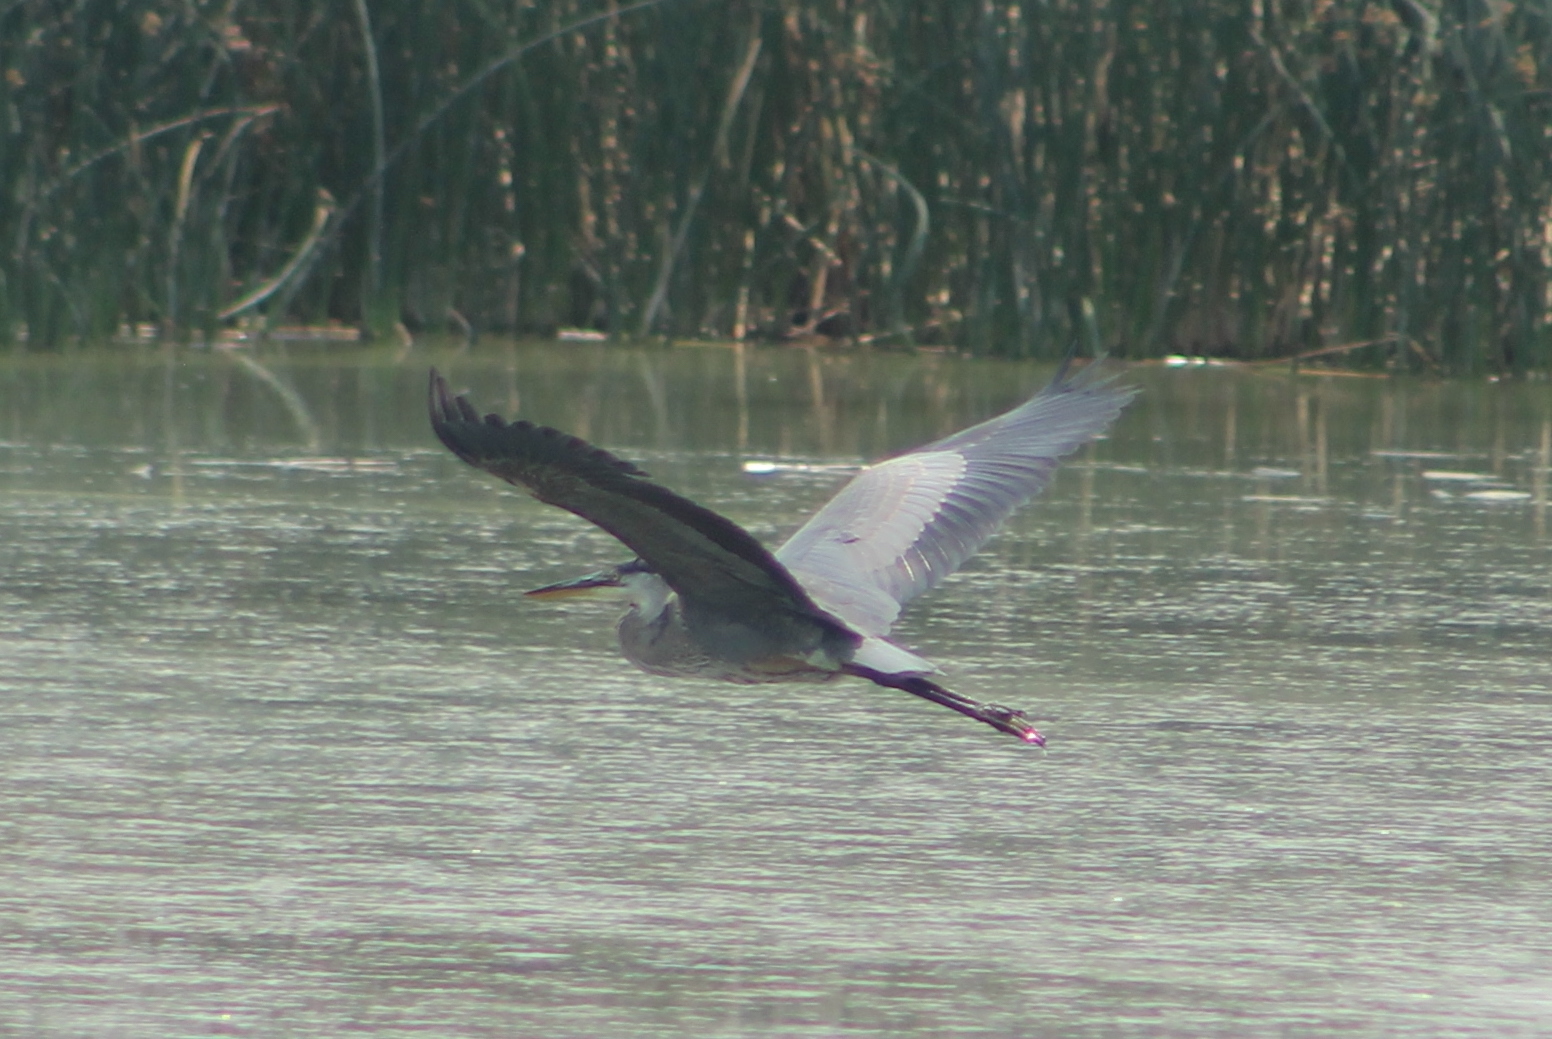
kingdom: Animalia
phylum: Chordata
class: Aves
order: Pelecaniformes
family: Ardeidae
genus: Ardea
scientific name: Ardea herodias
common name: Great blue heron
